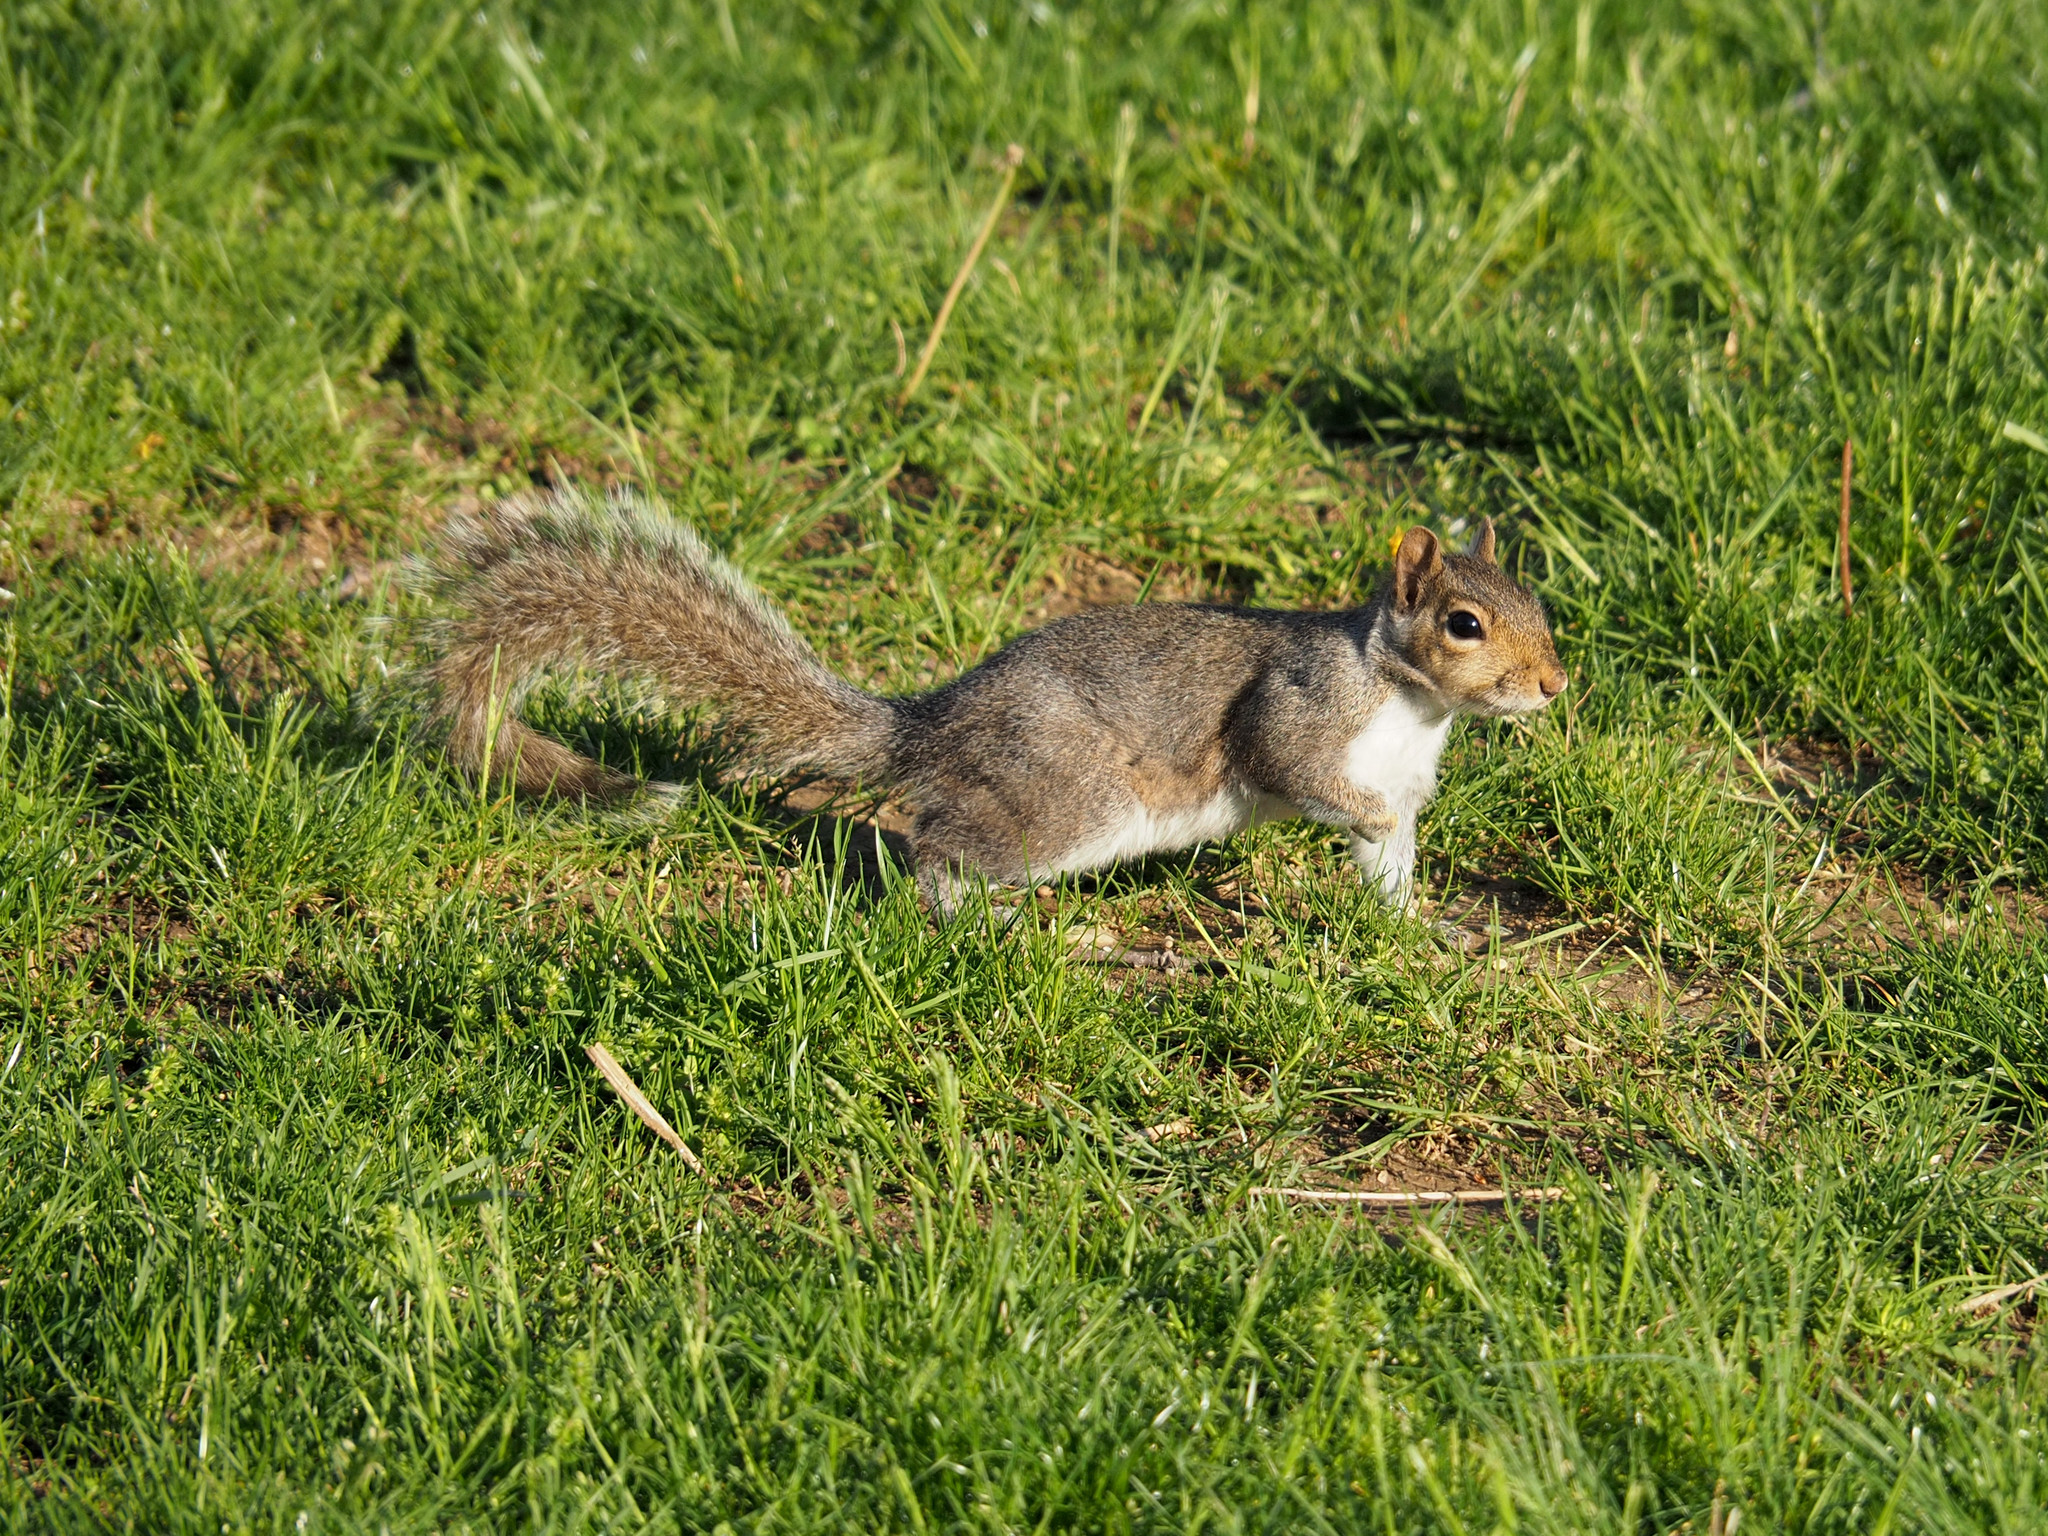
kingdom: Animalia
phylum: Chordata
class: Mammalia
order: Rodentia
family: Sciuridae
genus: Sciurus
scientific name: Sciurus carolinensis
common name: Eastern gray squirrel
